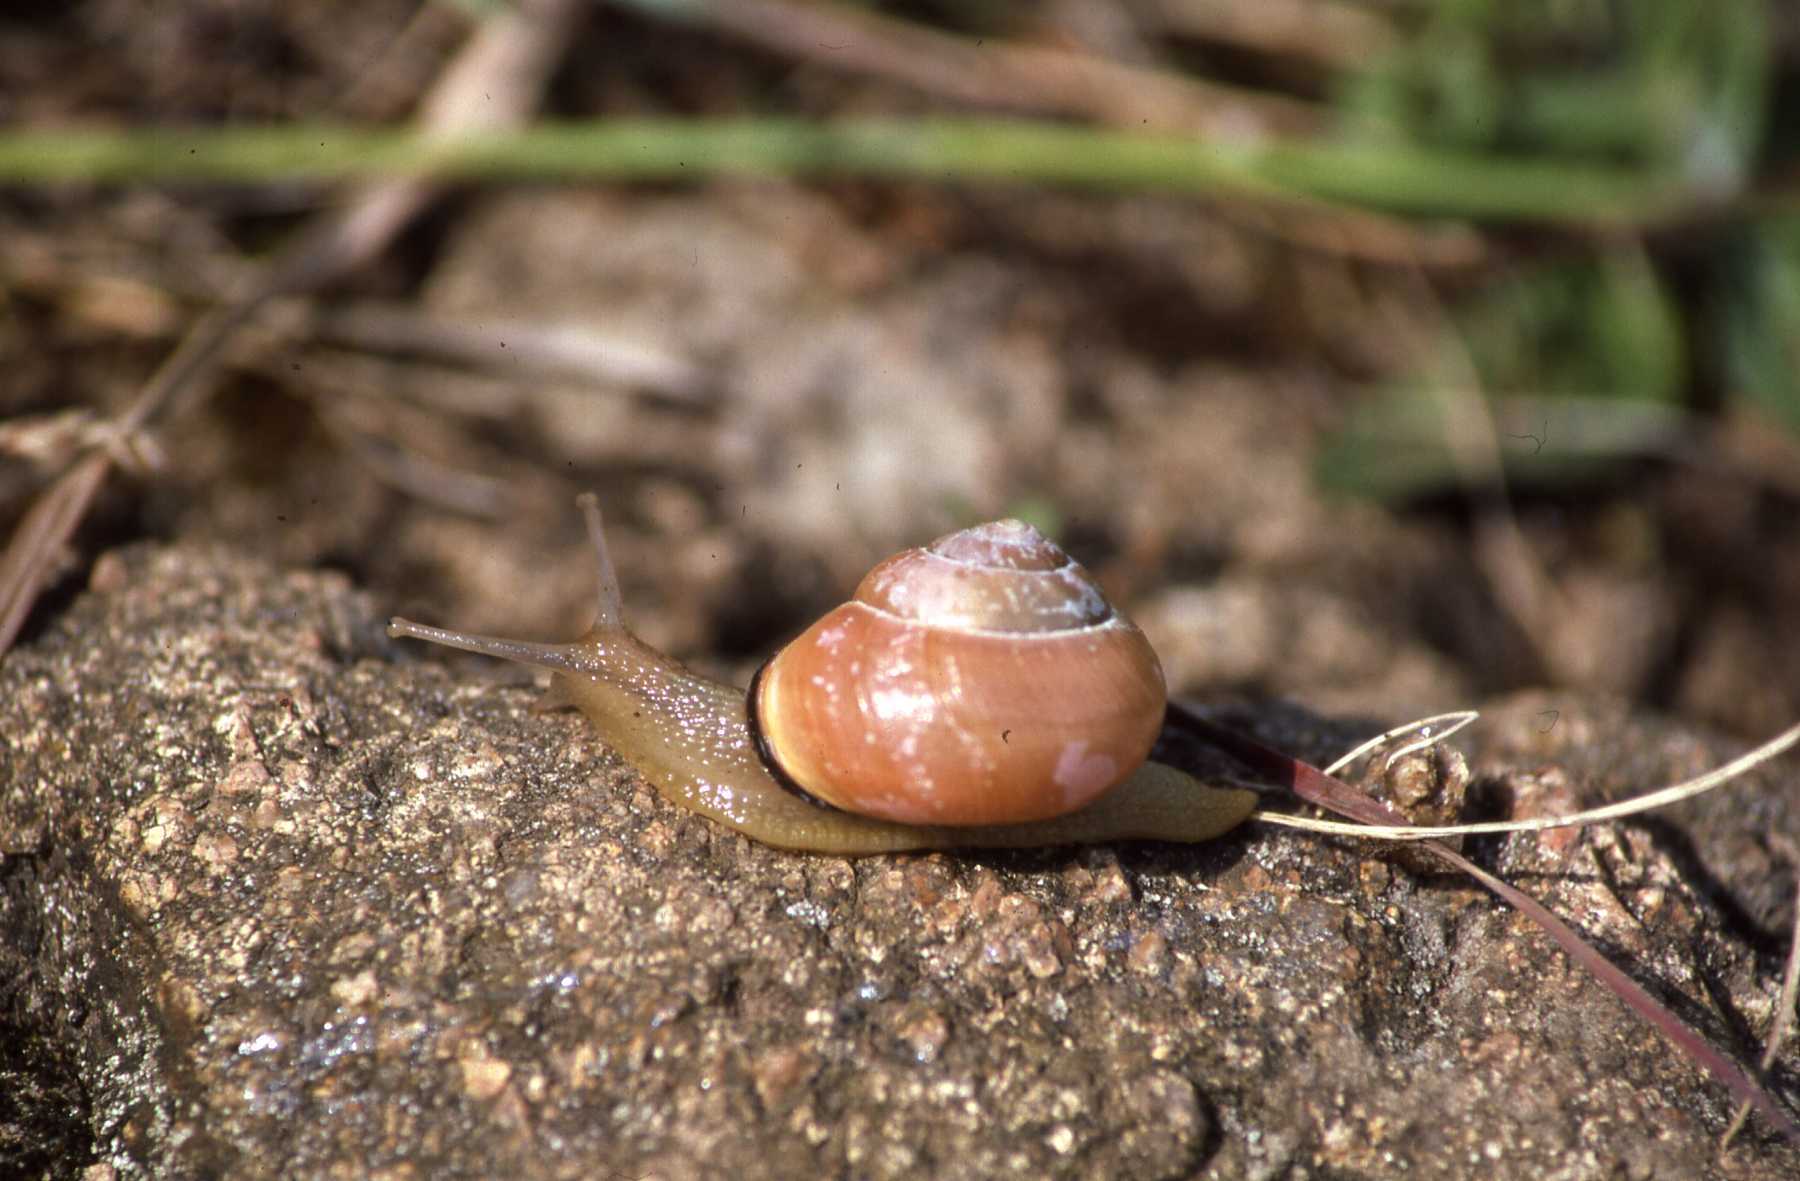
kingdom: Animalia
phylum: Mollusca
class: Gastropoda
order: Stylommatophora
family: Helicidae
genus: Cepaea
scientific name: Cepaea nemoralis
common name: Grovesnail
